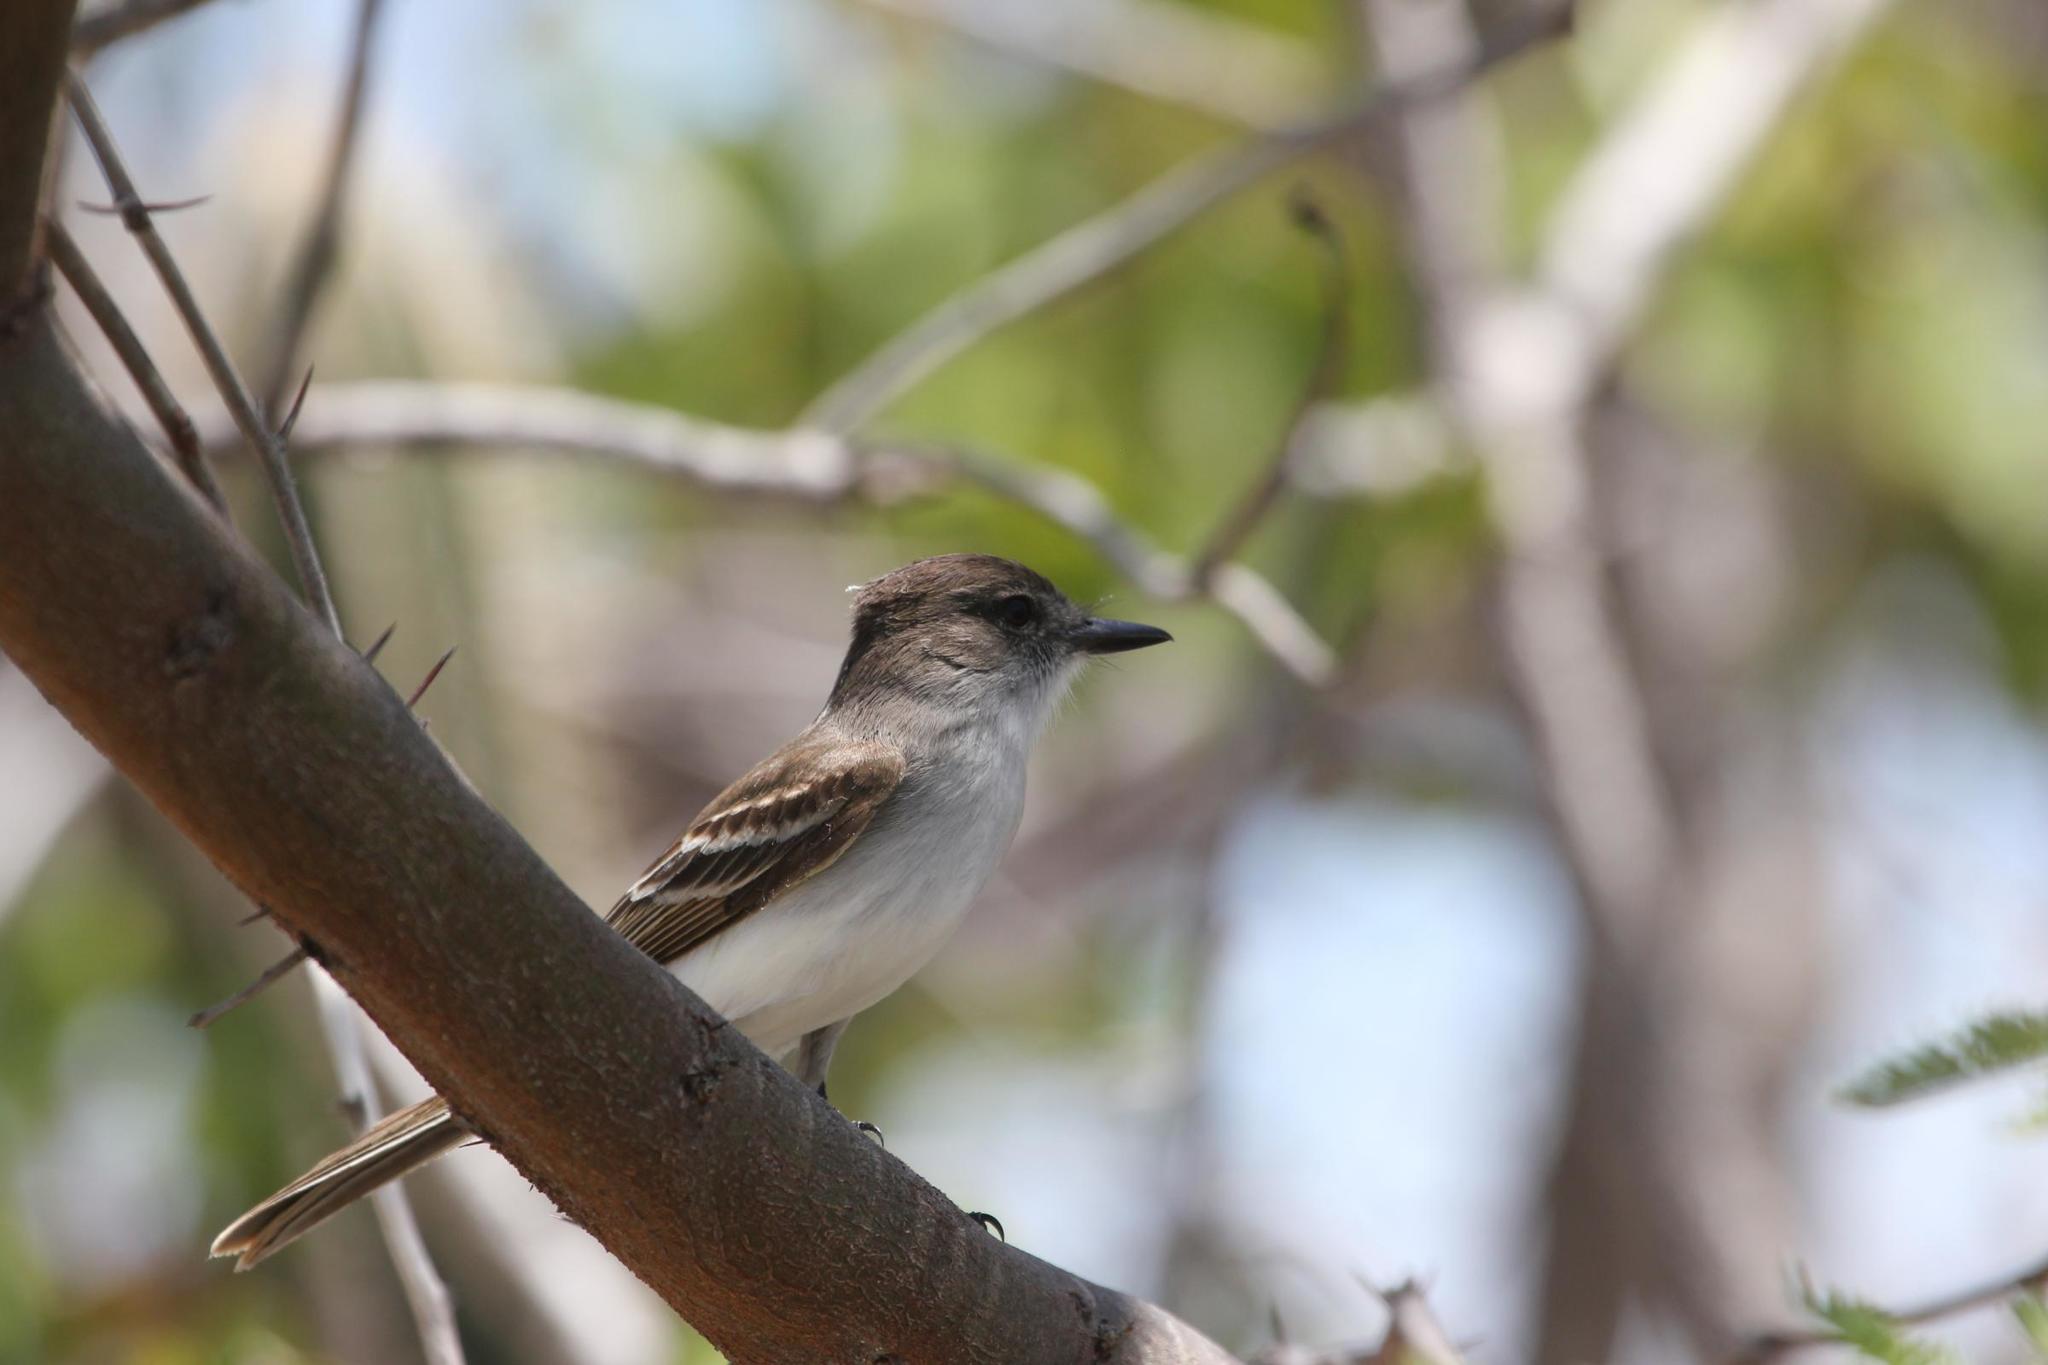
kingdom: Animalia
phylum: Chordata
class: Aves
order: Passeriformes
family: Tyrannidae
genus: Myiarchus
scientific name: Myiarchus antillarum
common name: Puerto rican flycatcher
